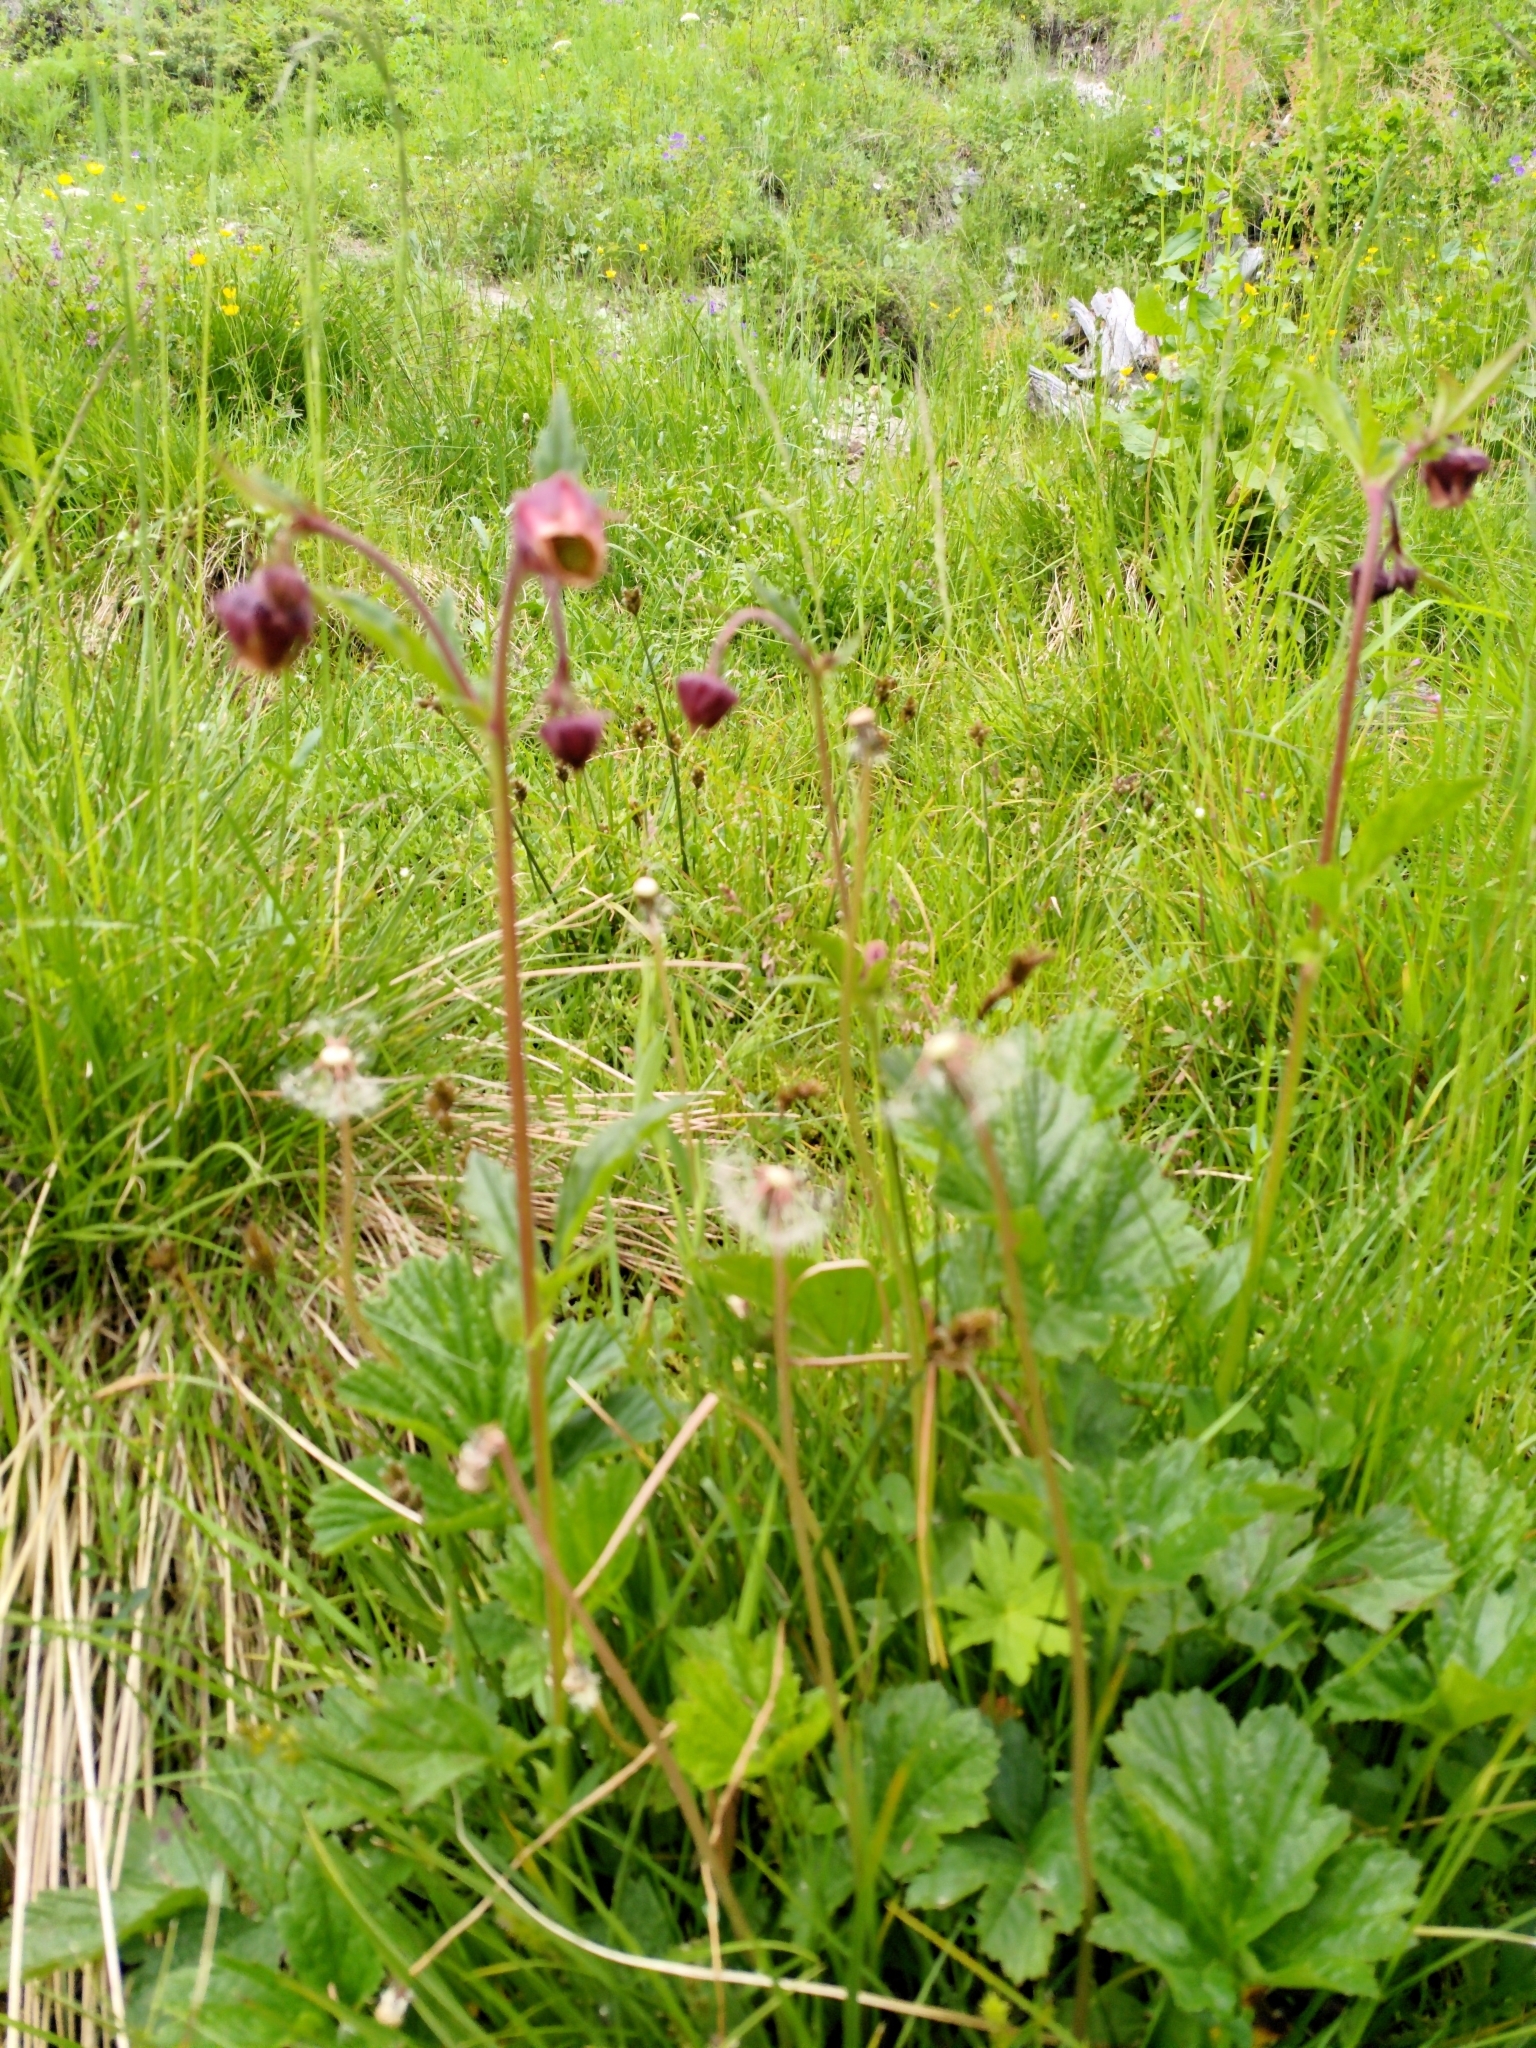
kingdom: Plantae
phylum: Tracheophyta
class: Magnoliopsida
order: Rosales
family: Rosaceae
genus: Geum
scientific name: Geum rivale
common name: Water avens
